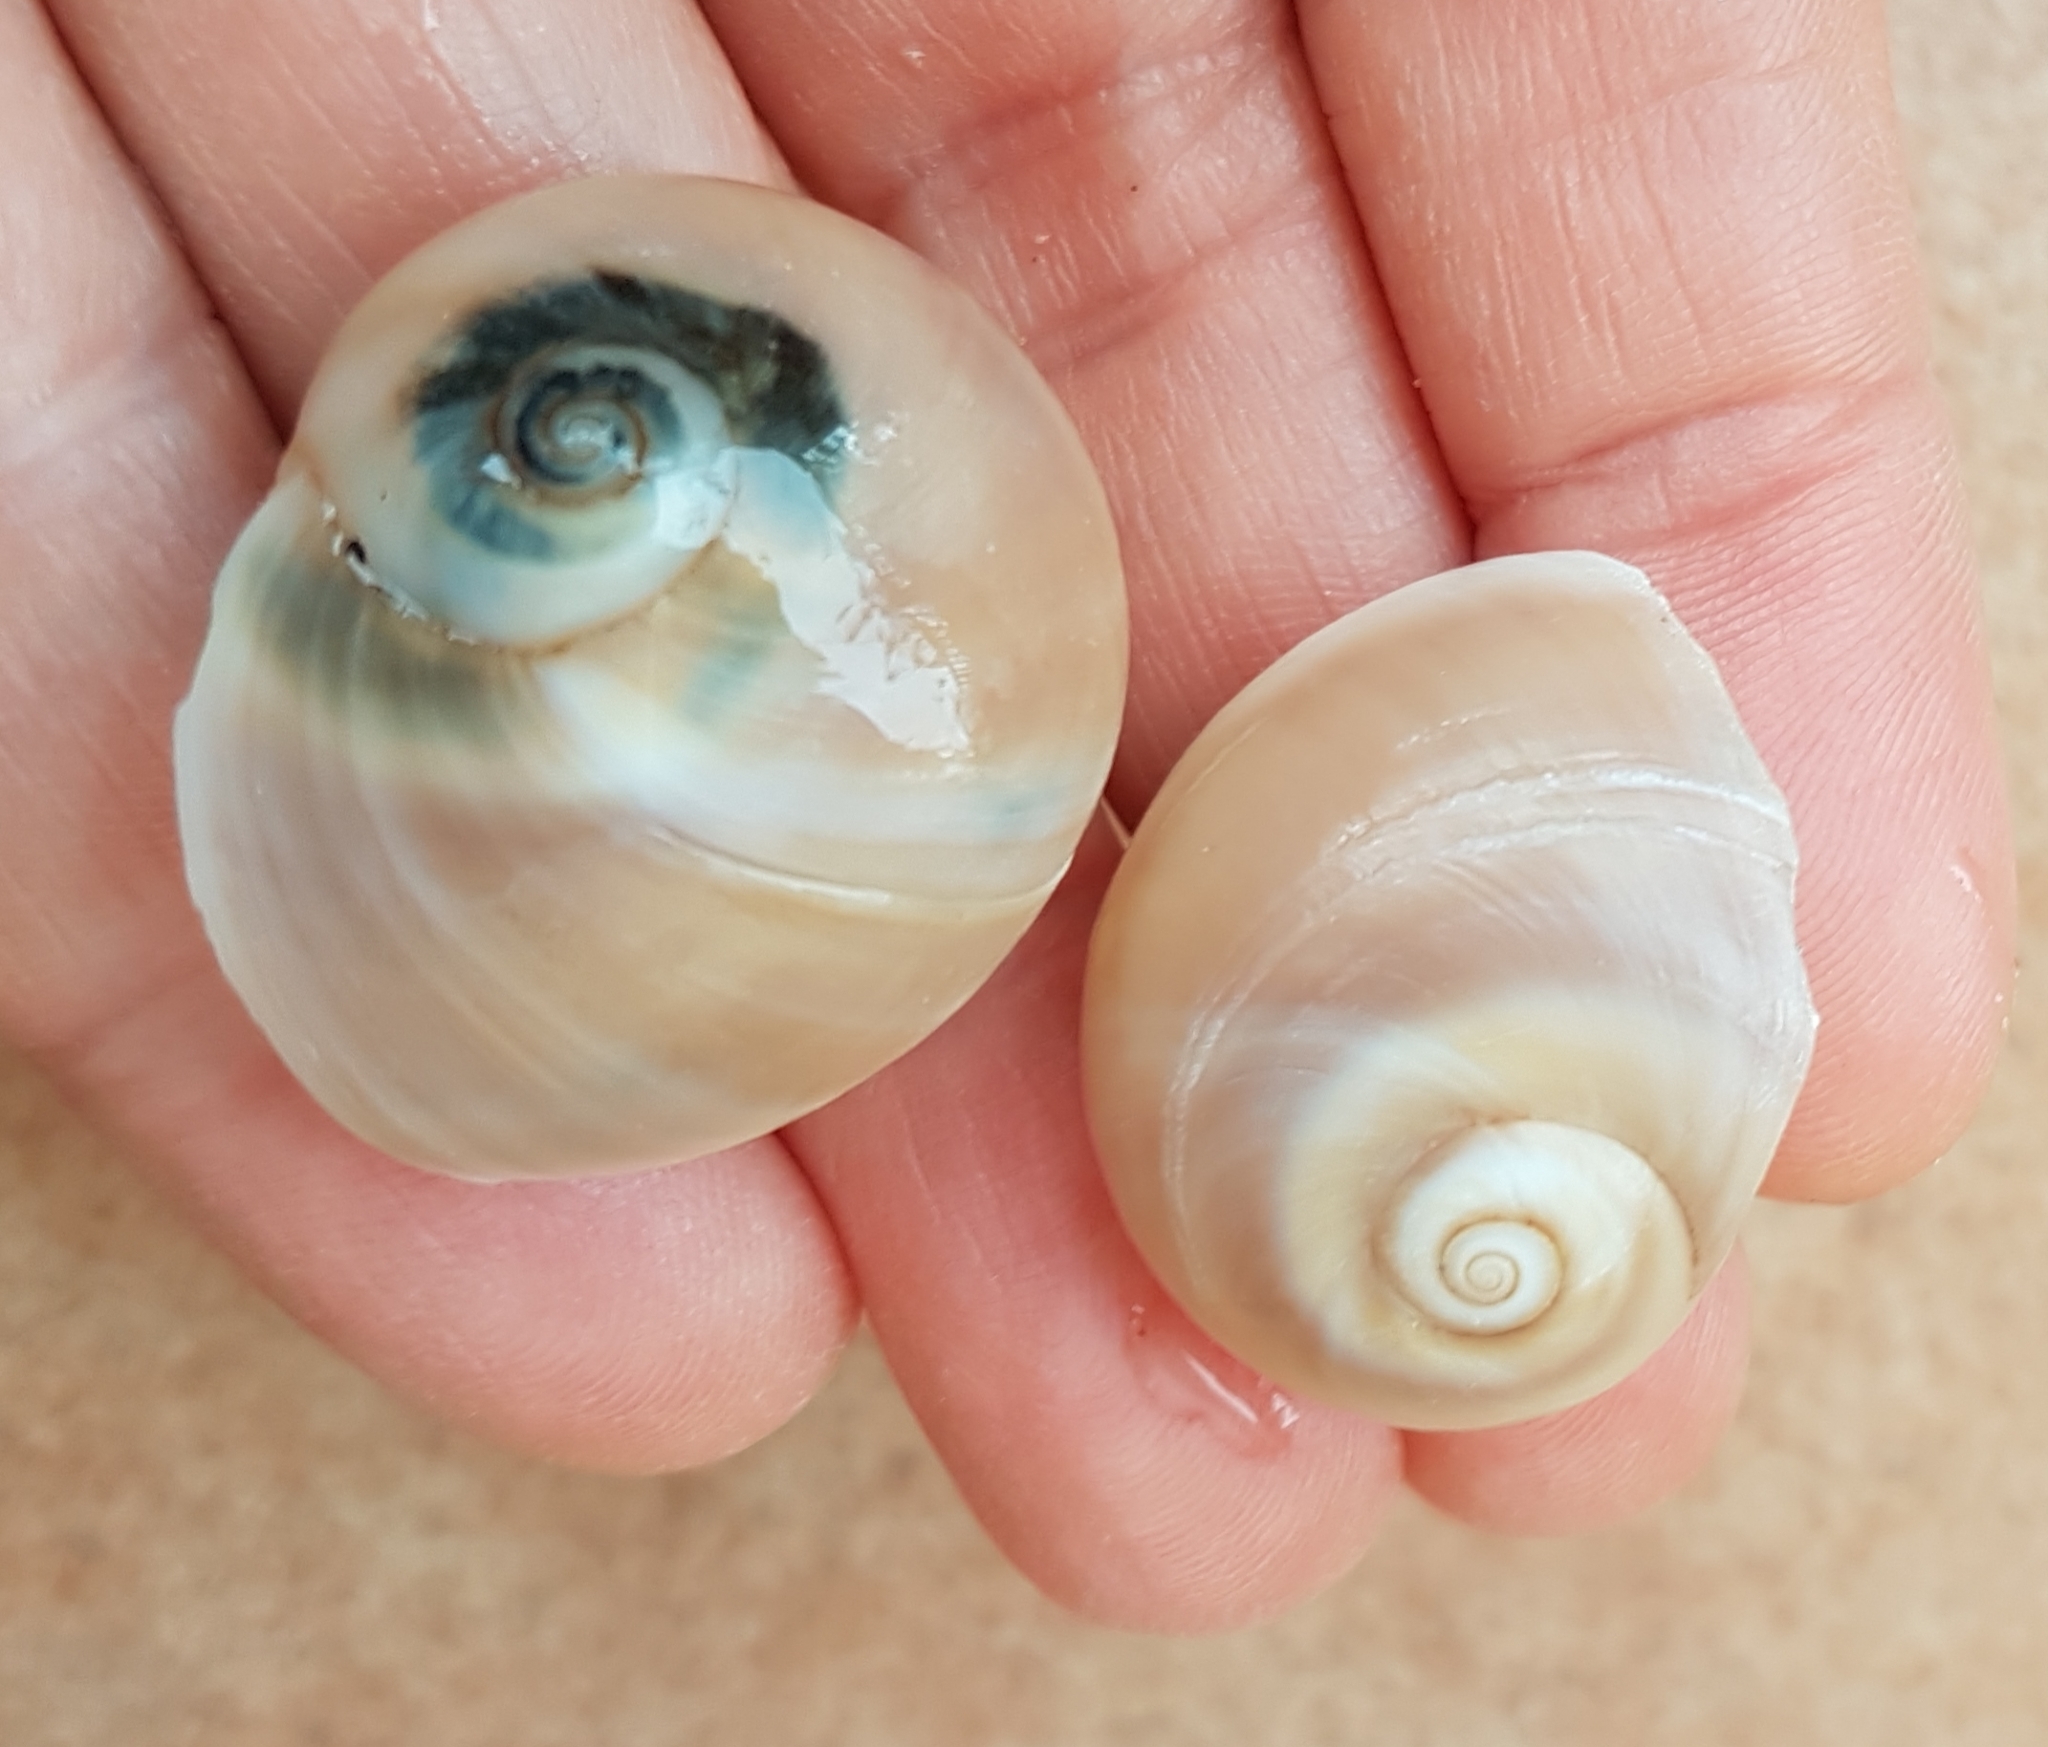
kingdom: Animalia
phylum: Mollusca
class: Gastropoda
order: Littorinimorpha
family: Naticidae
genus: Neverita
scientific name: Neverita josephinia
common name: Josephine's moonsnail
